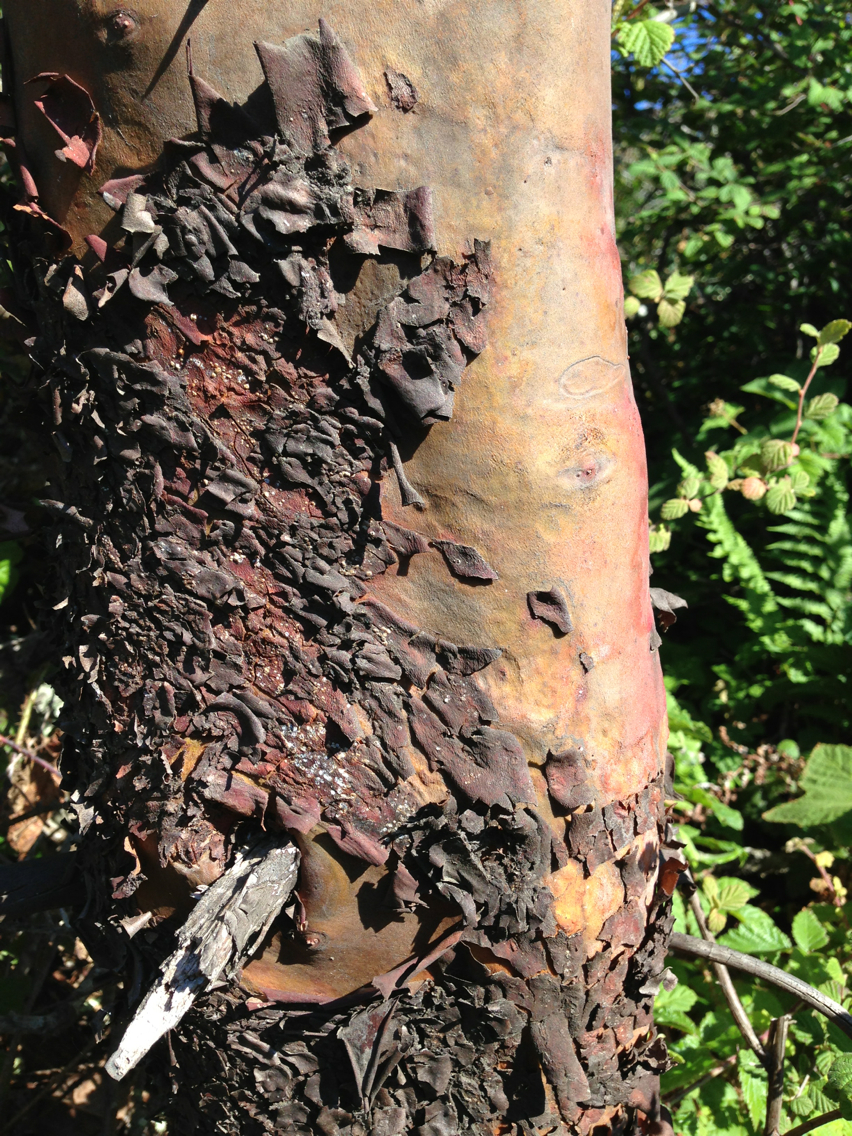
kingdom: Plantae
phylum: Tracheophyta
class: Magnoliopsida
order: Ericales
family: Ericaceae
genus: Arbutus
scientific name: Arbutus menziesii
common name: Pacific madrone
